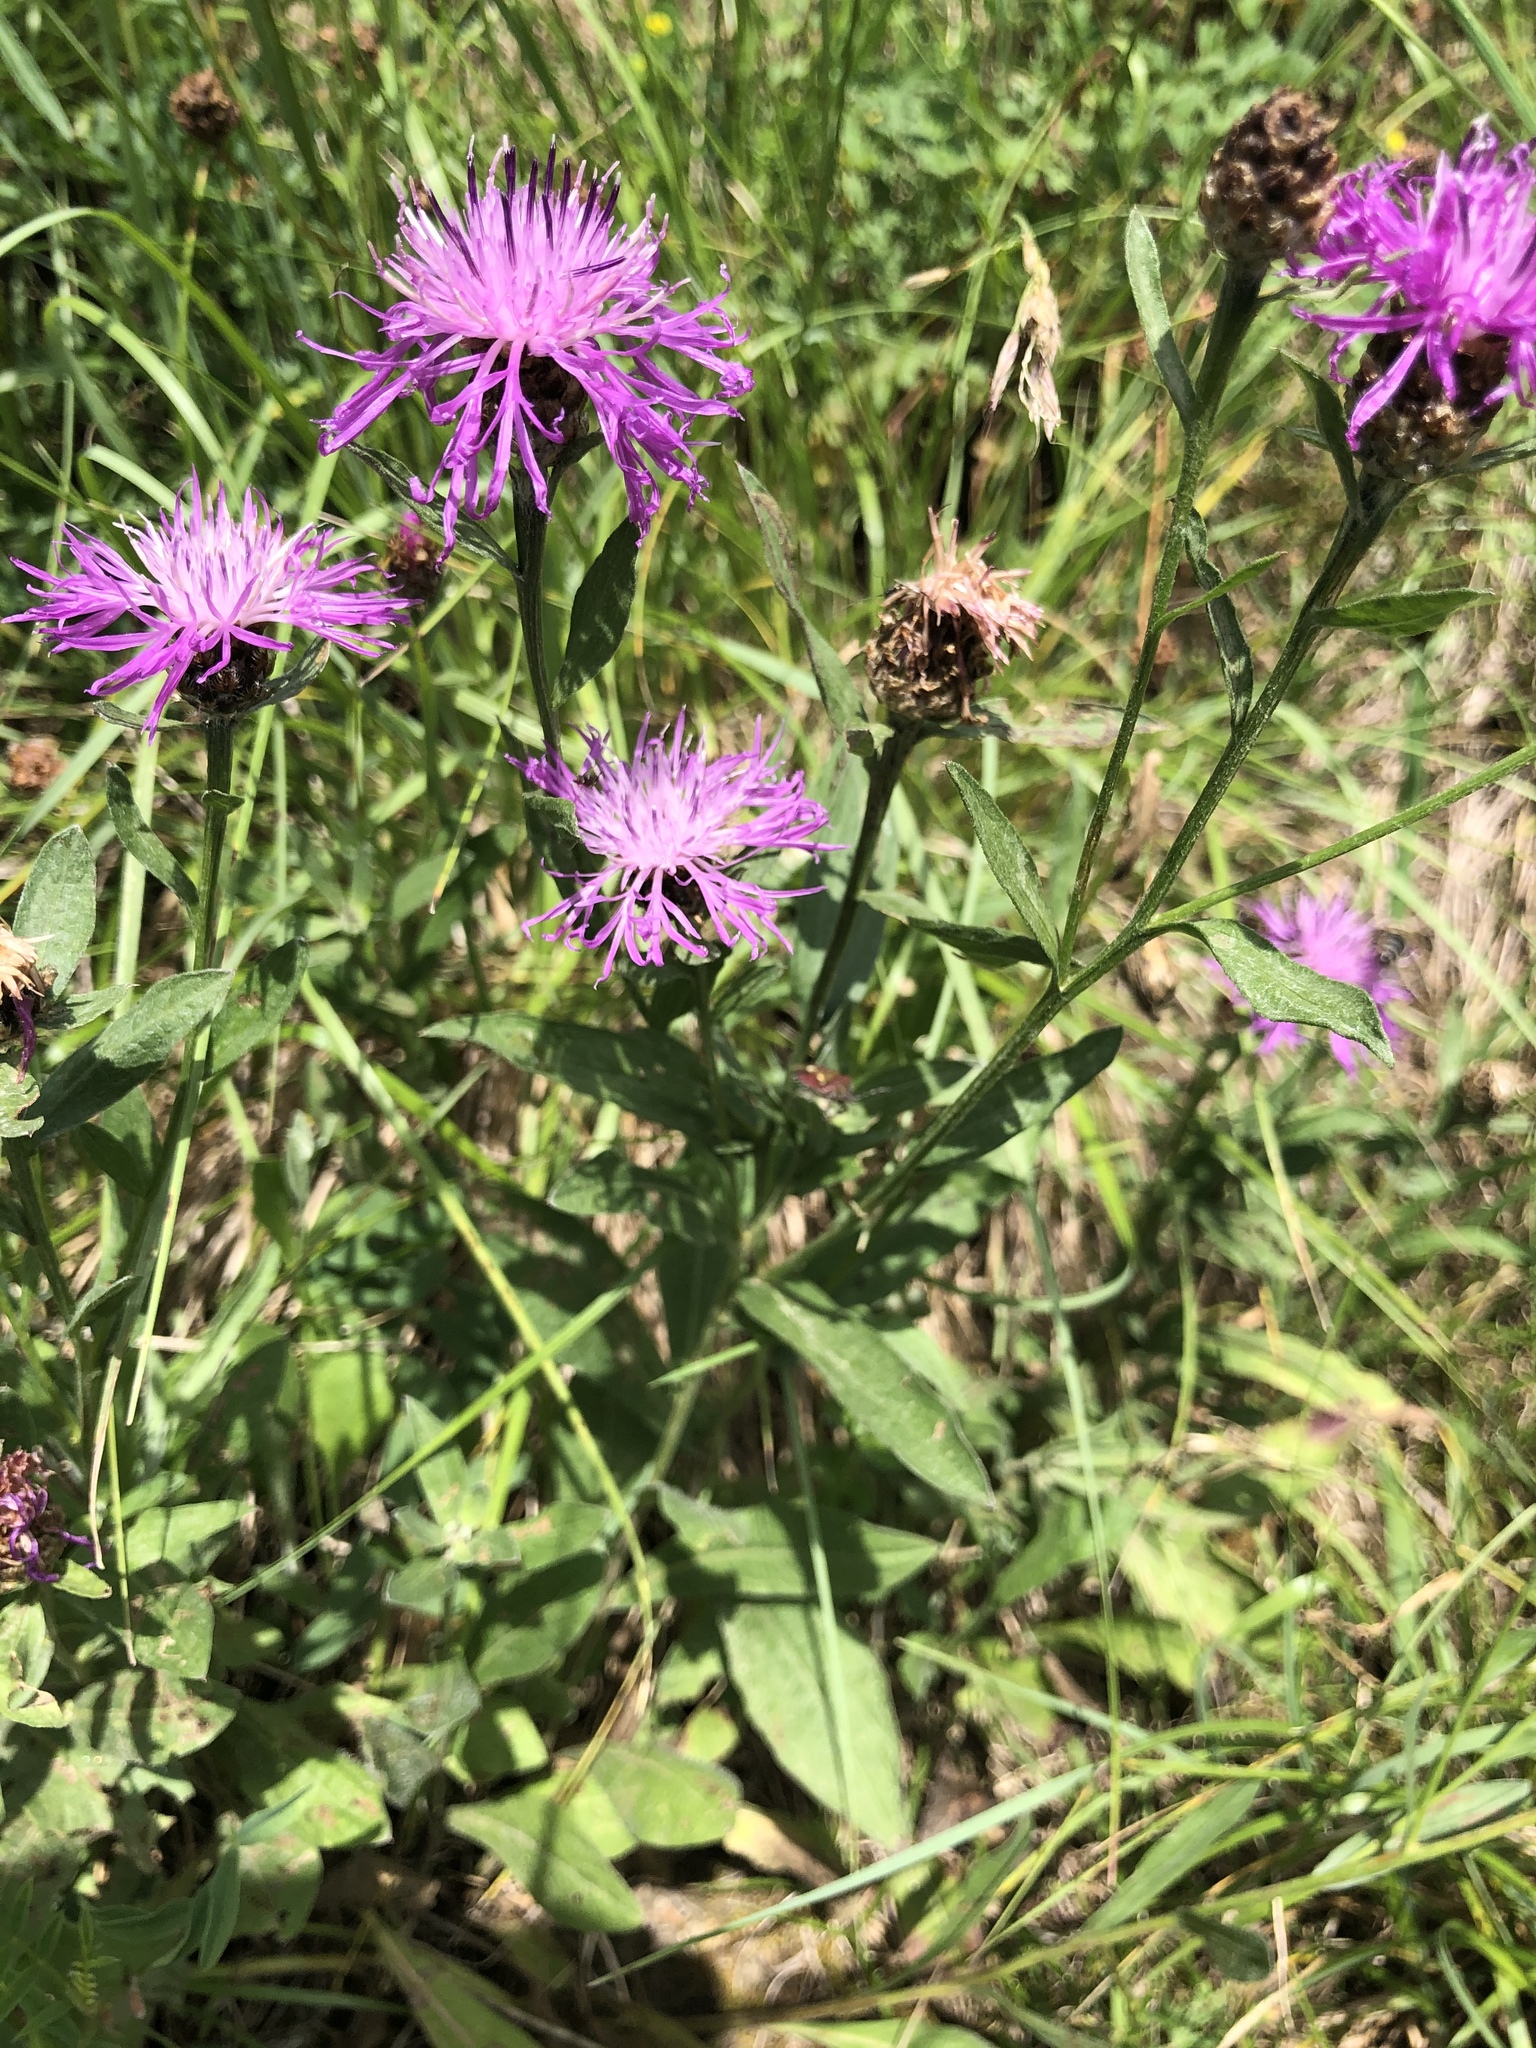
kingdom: Plantae
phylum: Tracheophyta
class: Magnoliopsida
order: Asterales
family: Asteraceae
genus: Centaurea
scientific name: Centaurea jacea
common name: Brown knapweed
